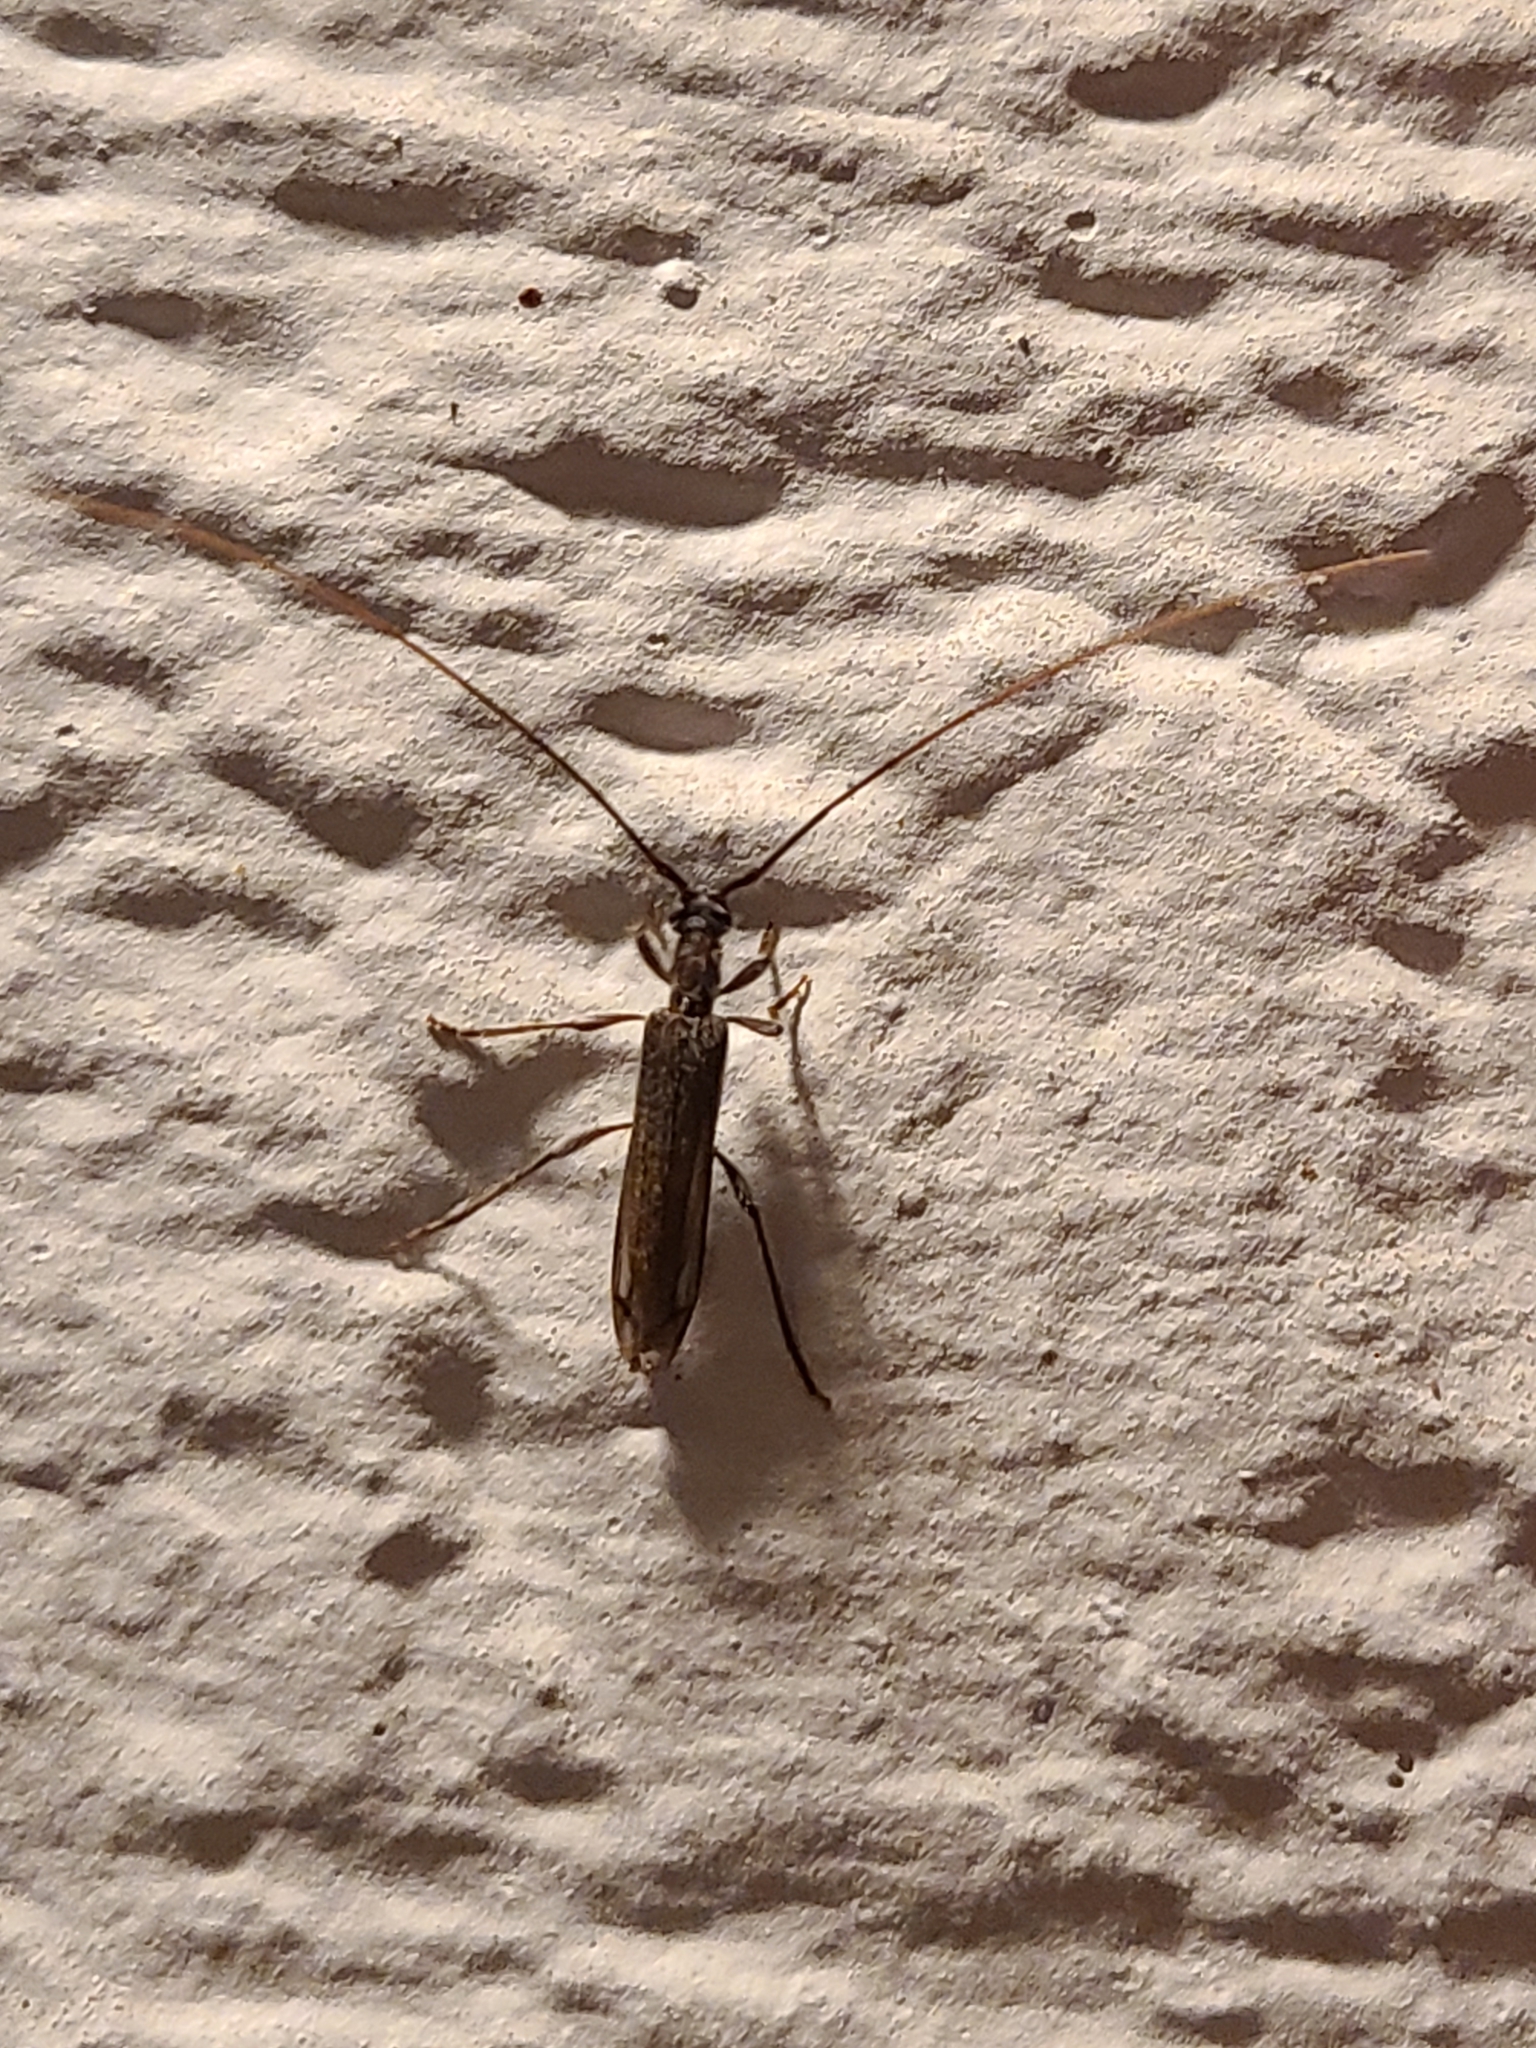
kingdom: Animalia
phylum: Arthropoda
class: Insecta
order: Coleoptera
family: Cerambycidae
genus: Styloxus
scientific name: Styloxus fulleri
